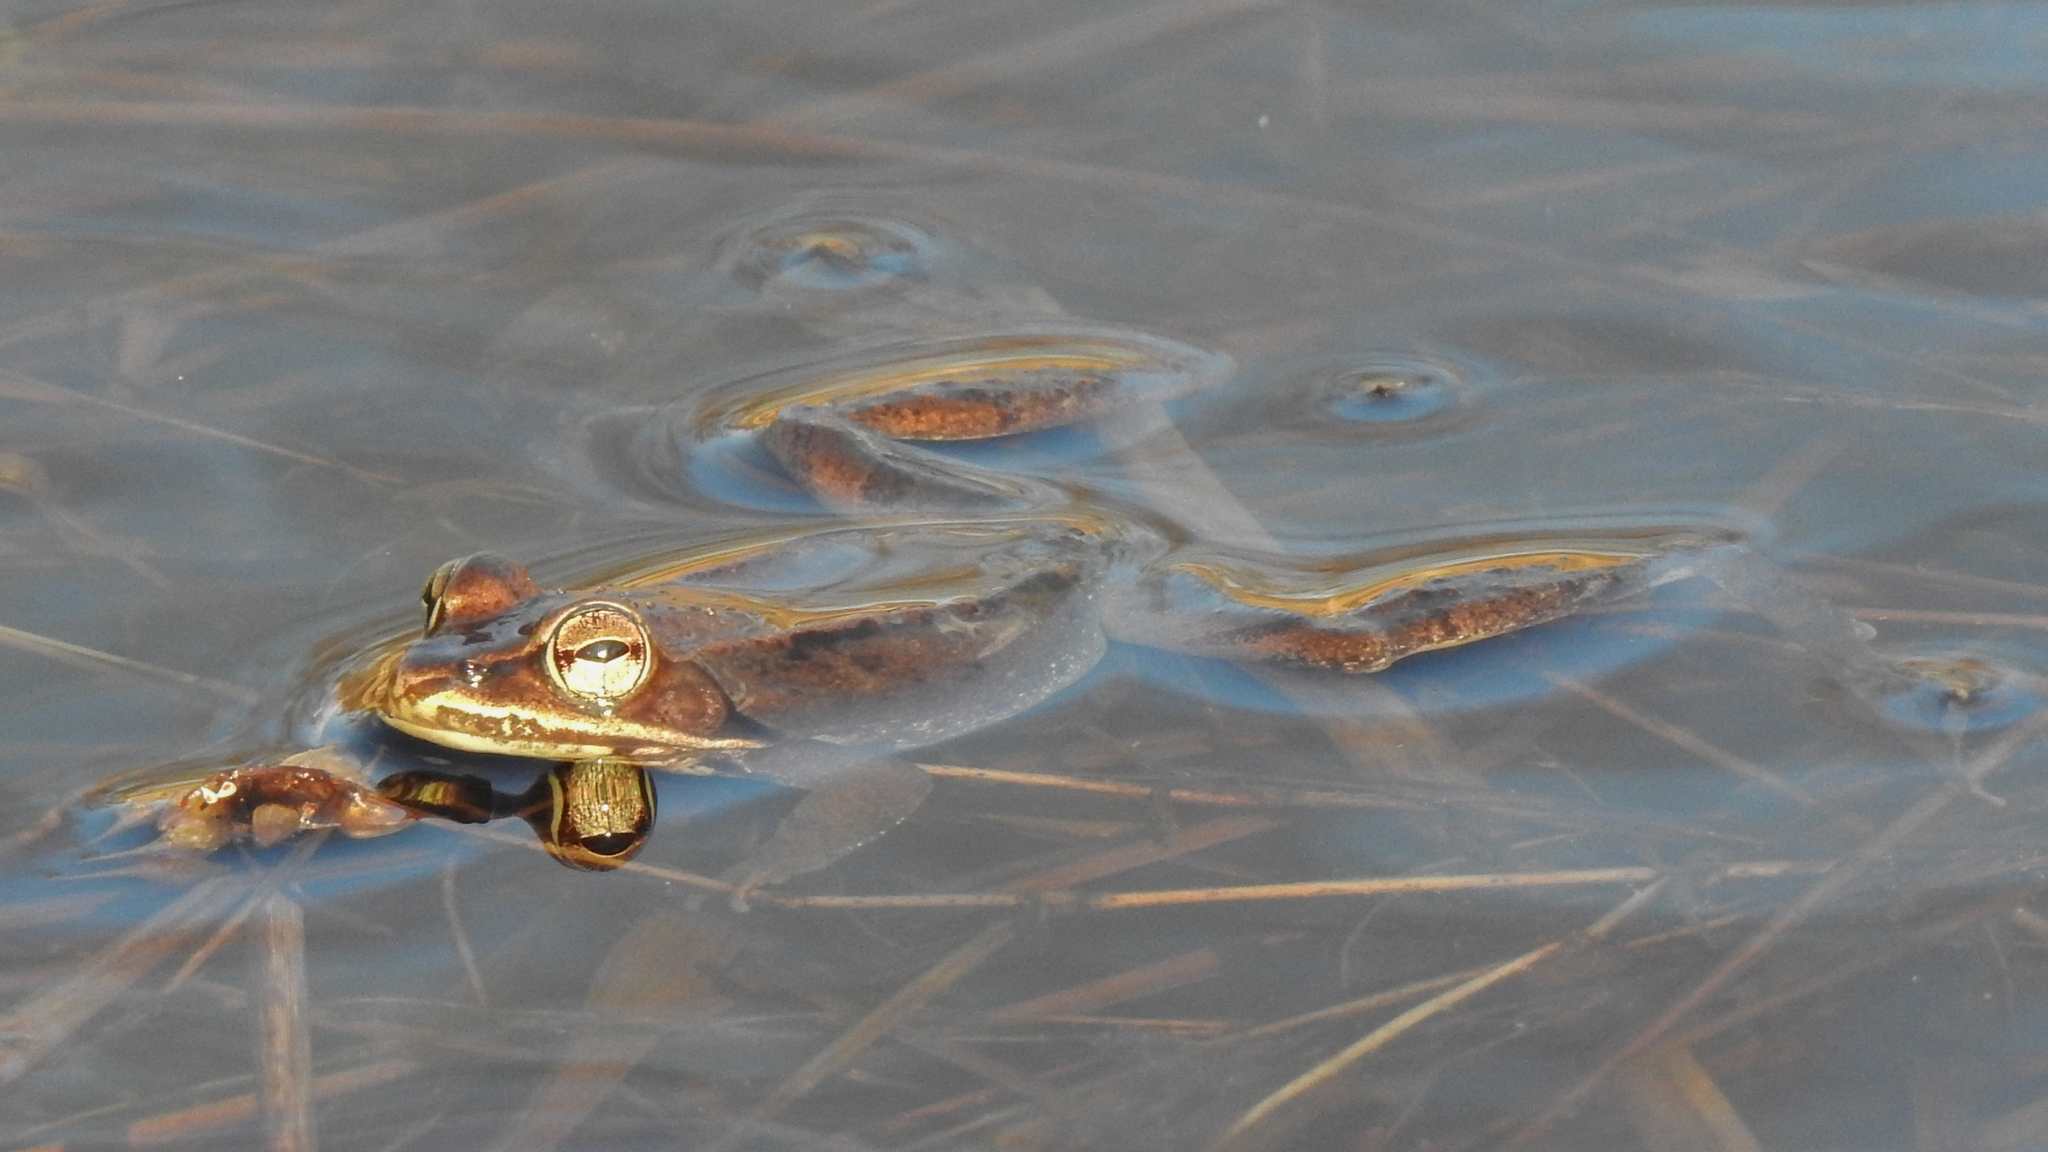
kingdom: Animalia
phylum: Chordata
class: Amphibia
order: Anura
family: Ranidae
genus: Lithobates
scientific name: Lithobates sylvaticus
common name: Wood frog
